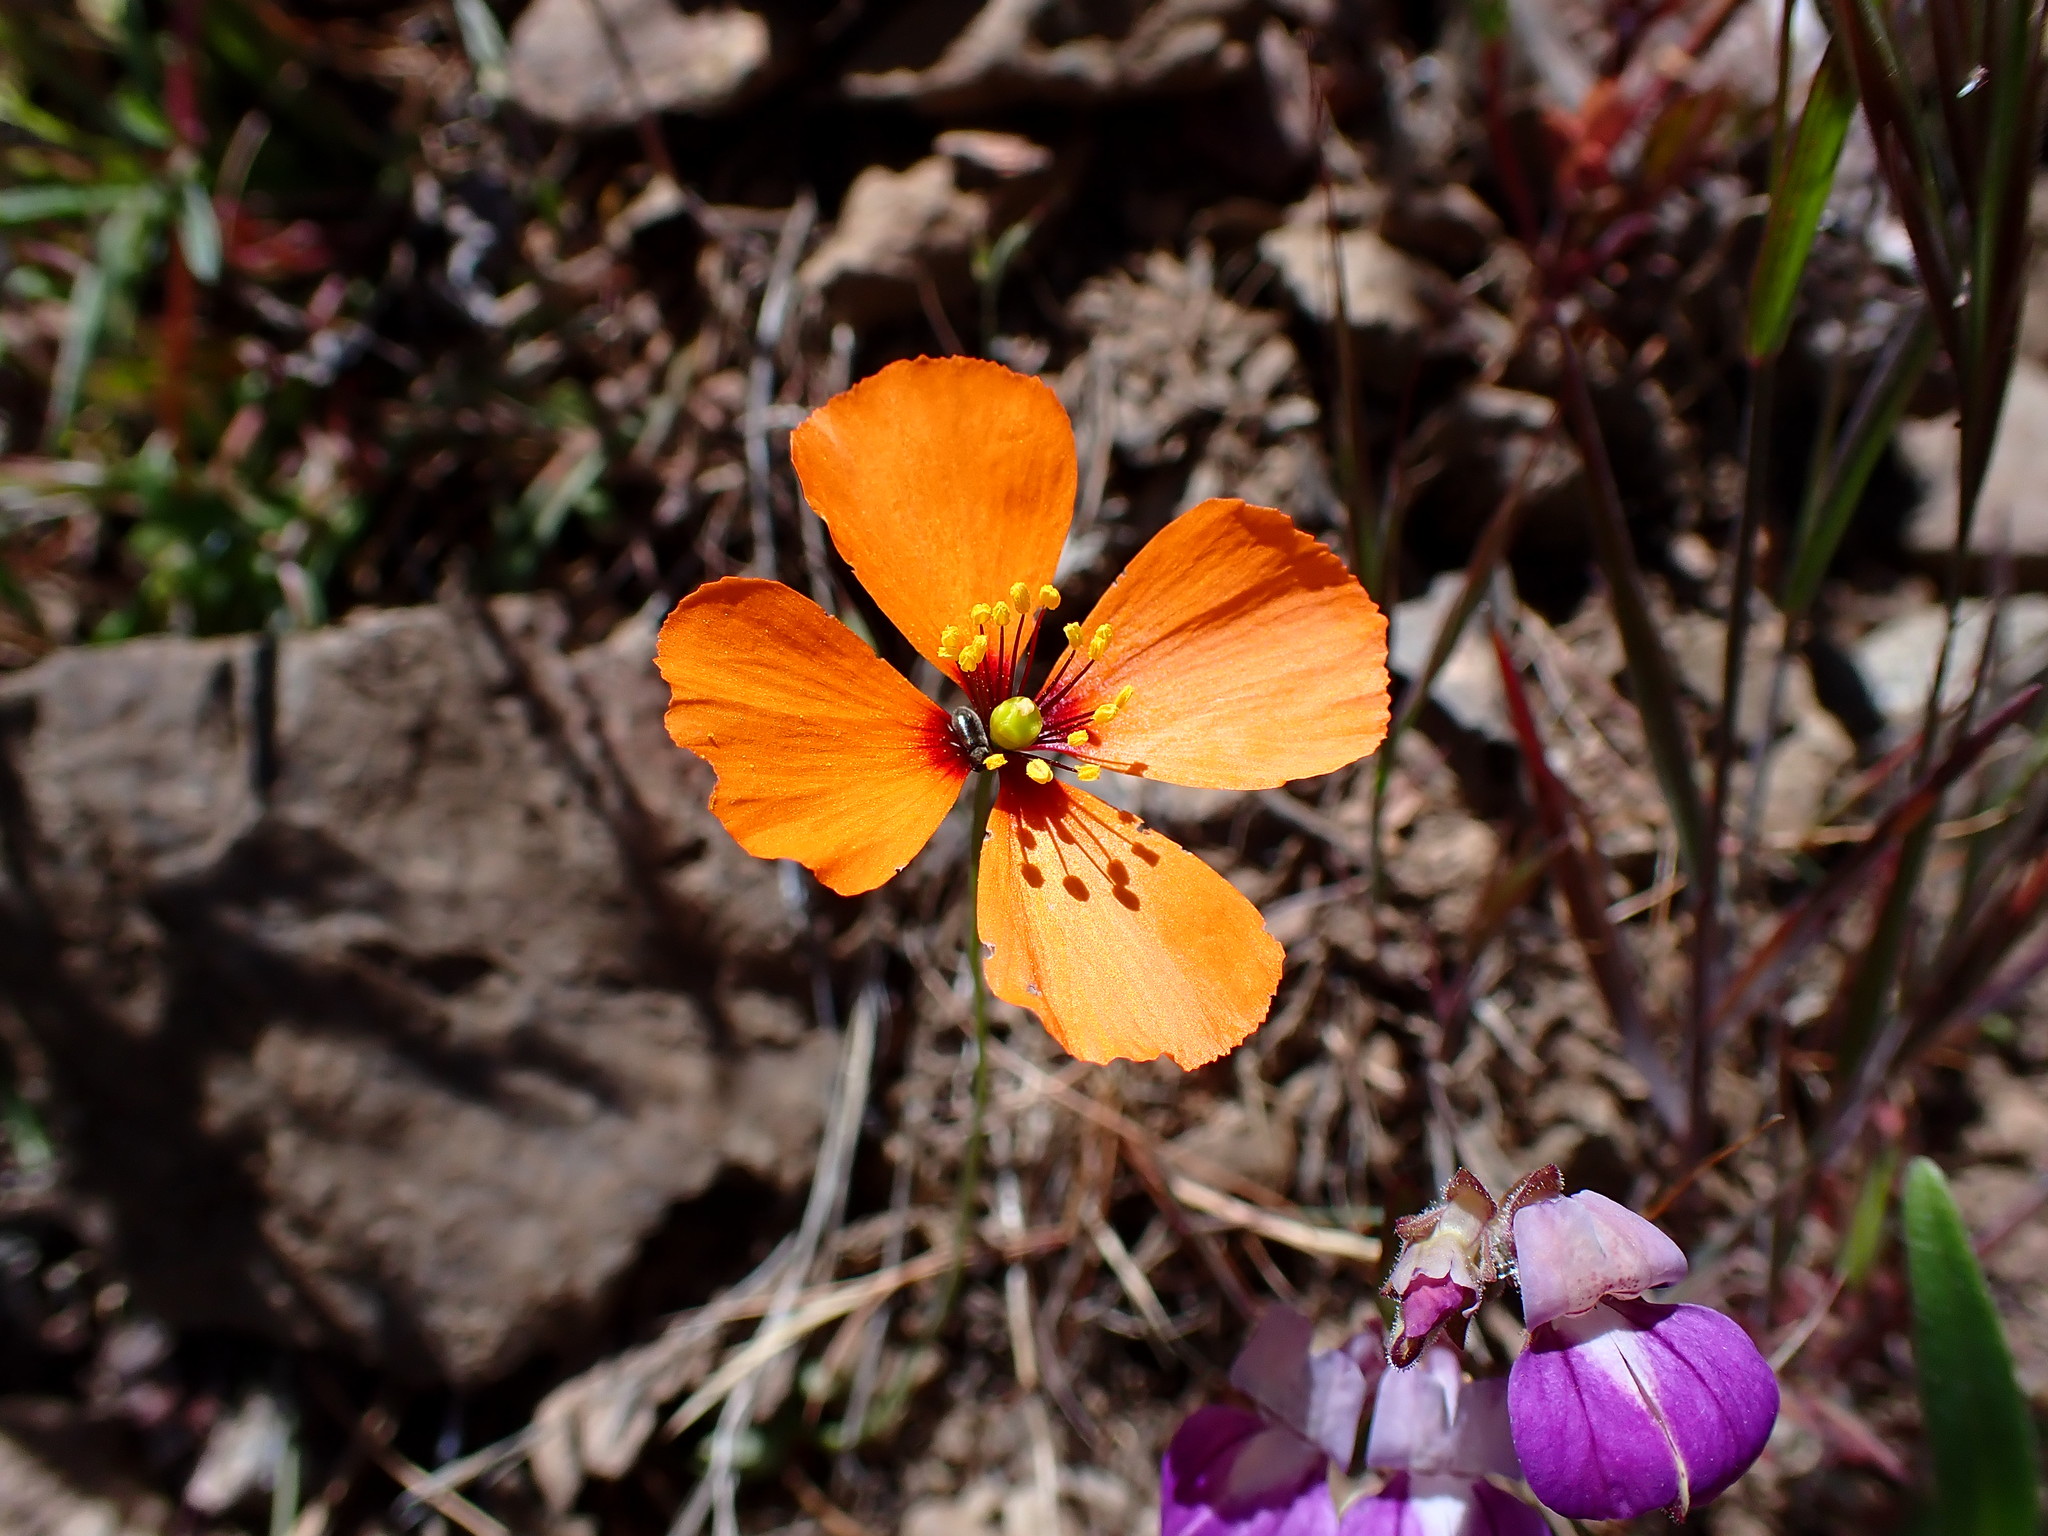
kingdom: Plantae
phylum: Tracheophyta
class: Magnoliopsida
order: Ranunculales
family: Papaveraceae
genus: Stylomecon
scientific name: Stylomecon heterophylla
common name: Flaming-poppy
